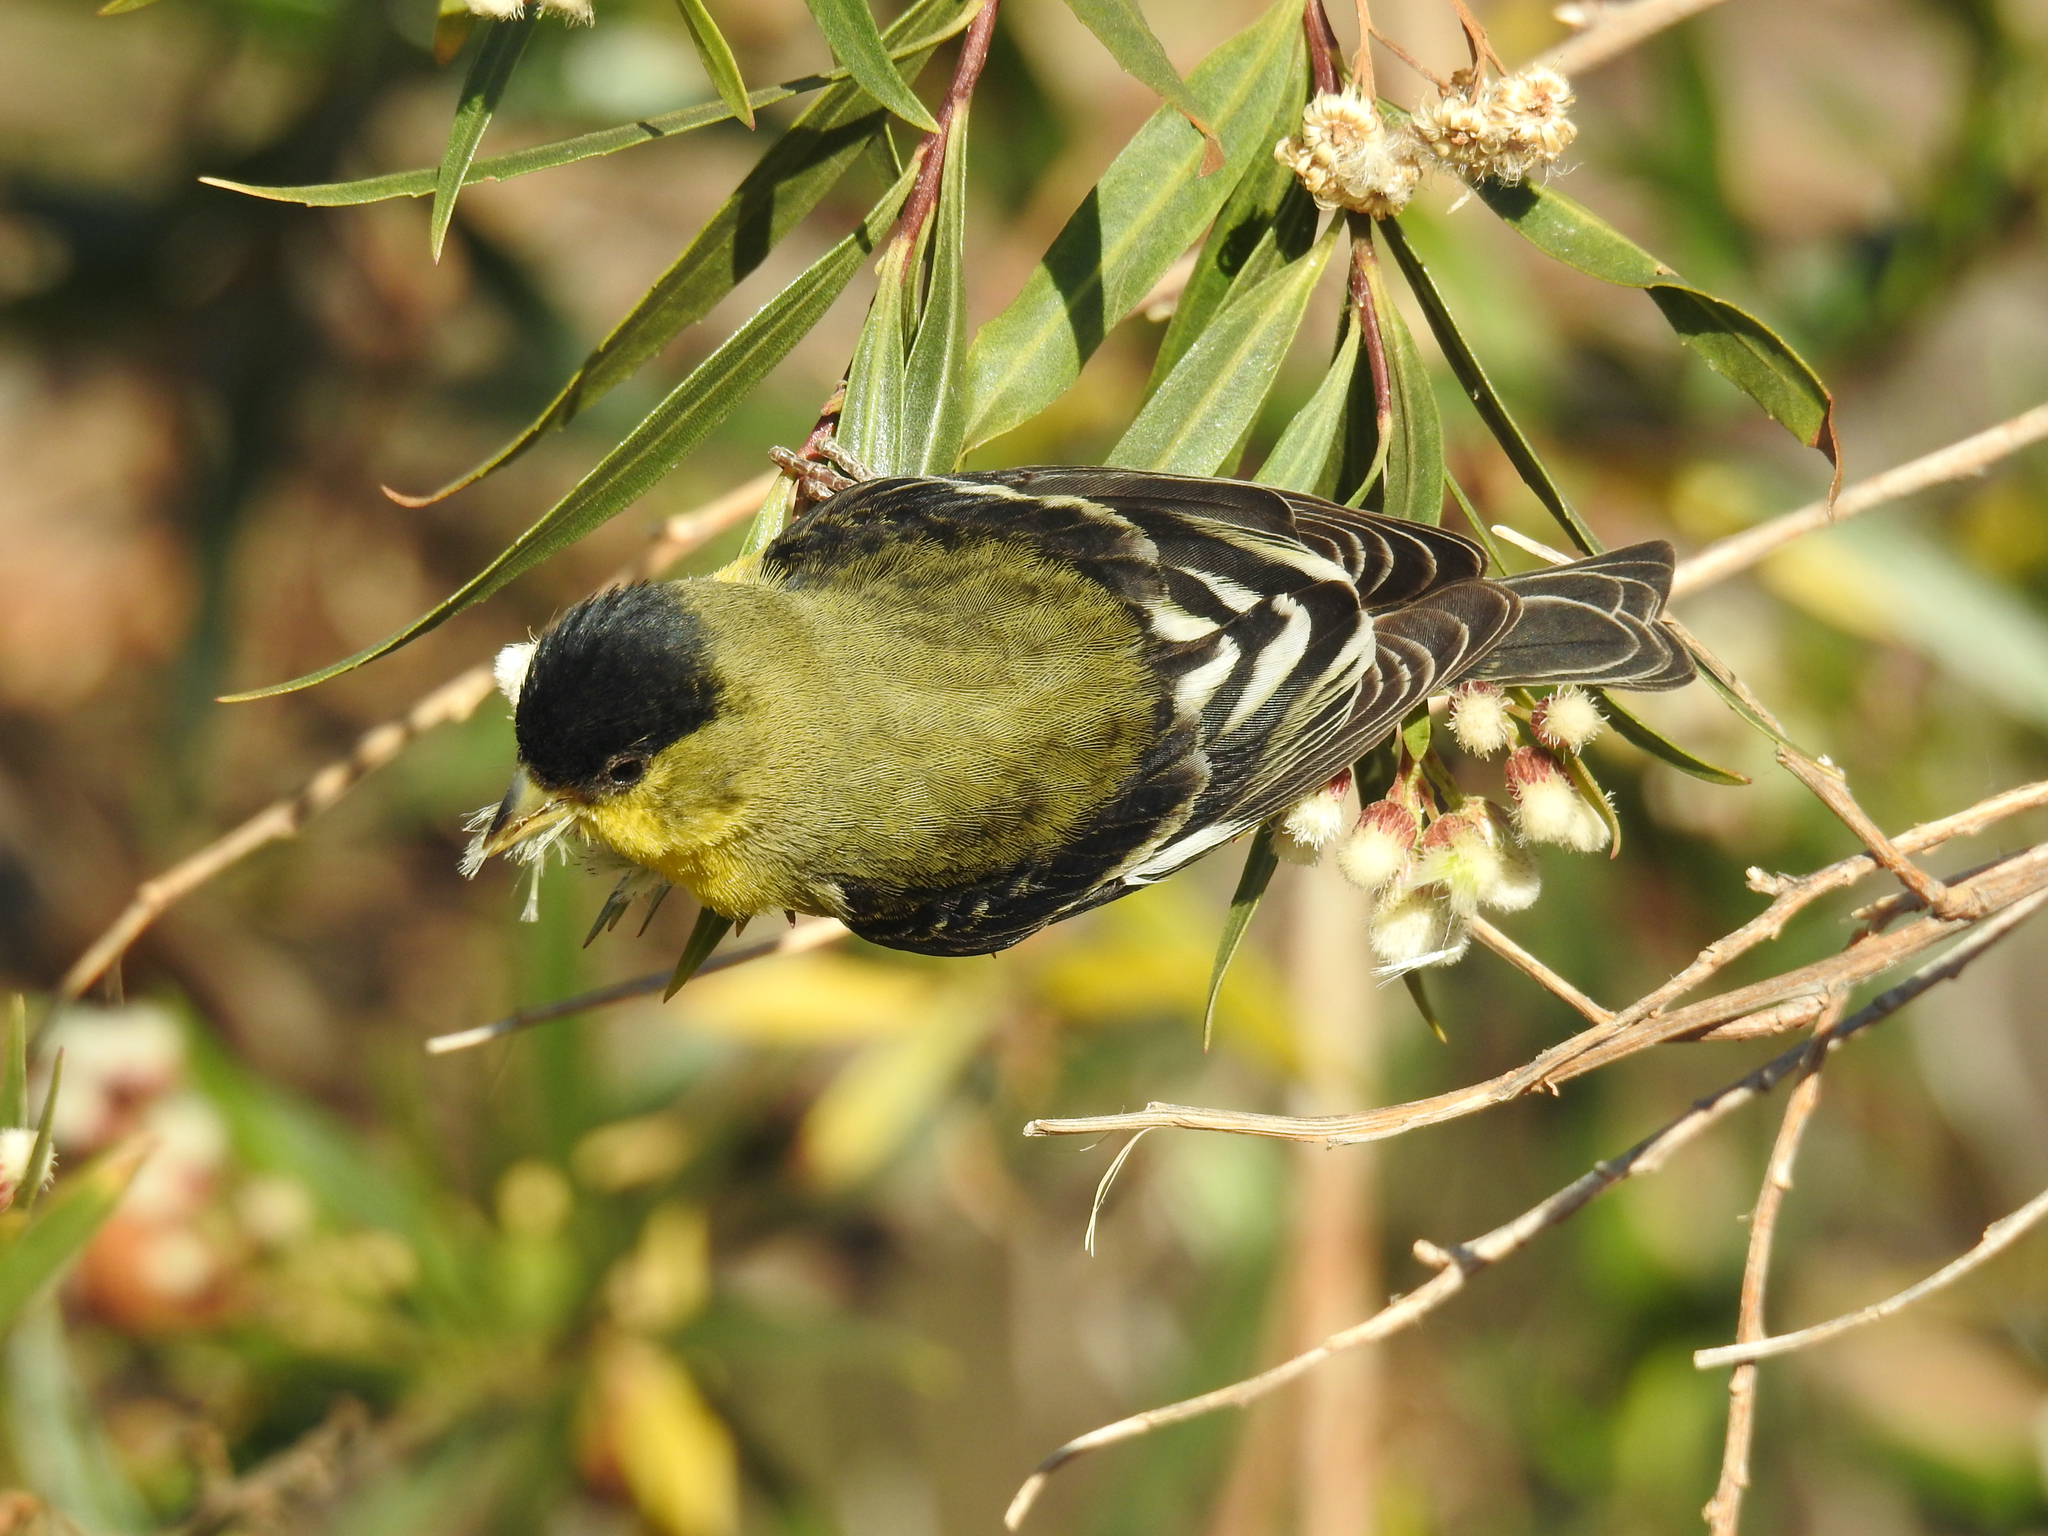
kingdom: Animalia
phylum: Chordata
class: Aves
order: Passeriformes
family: Fringillidae
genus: Spinus
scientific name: Spinus psaltria
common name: Lesser goldfinch
